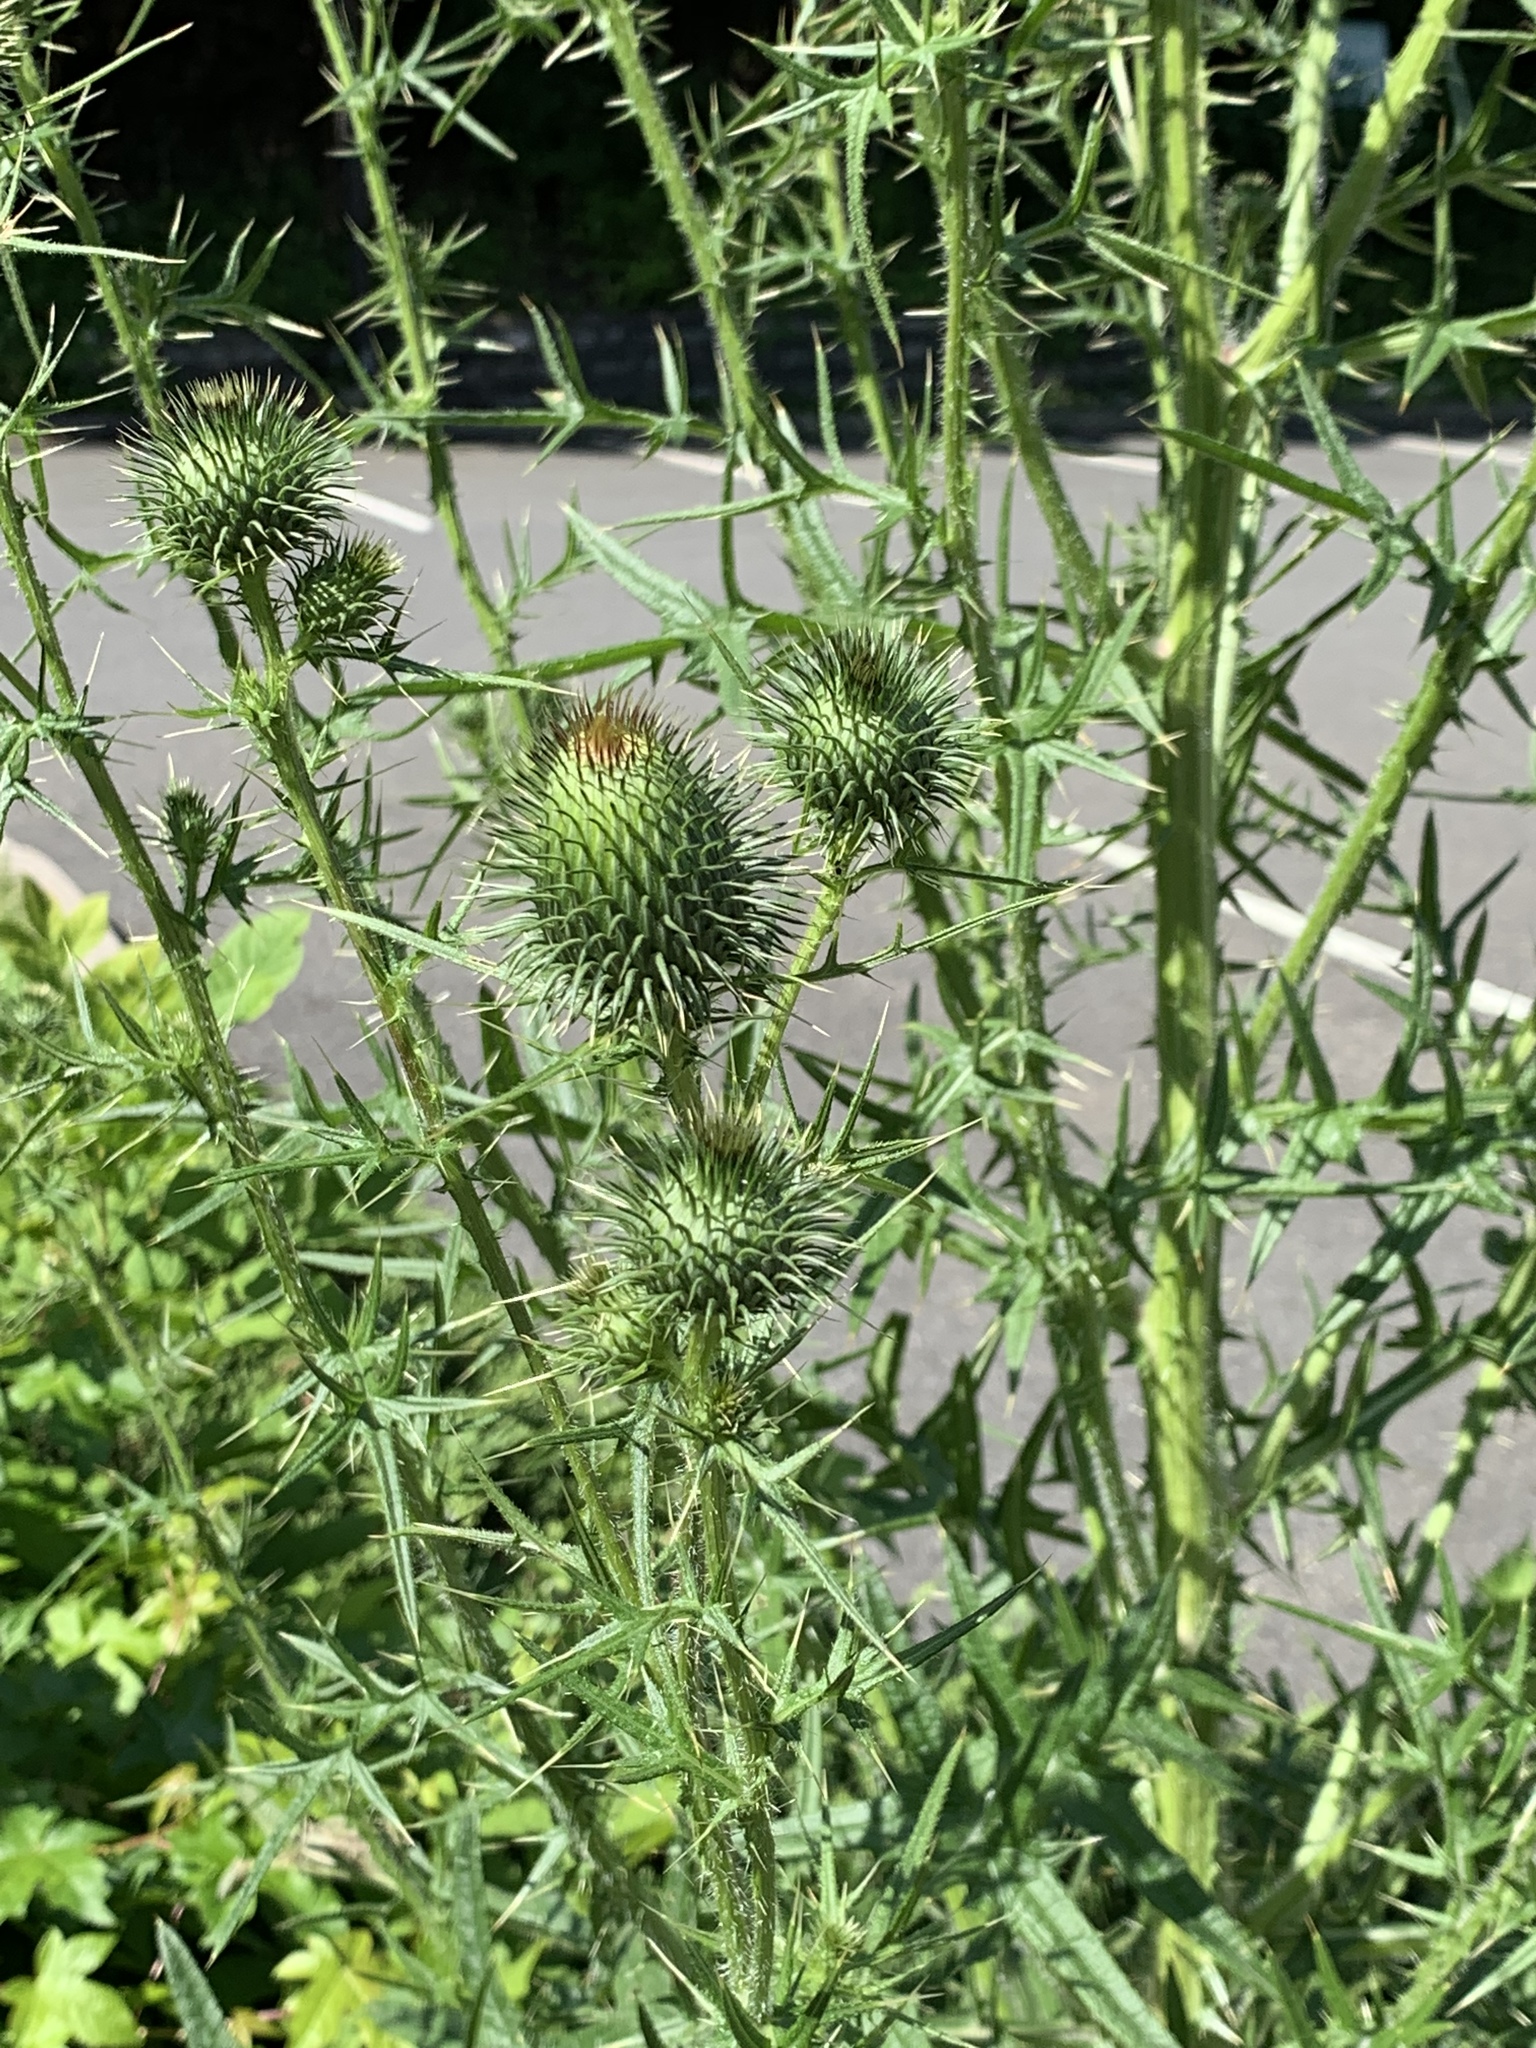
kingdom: Plantae
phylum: Tracheophyta
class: Magnoliopsida
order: Asterales
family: Asteraceae
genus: Cirsium
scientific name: Cirsium vulgare
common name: Bull thistle
